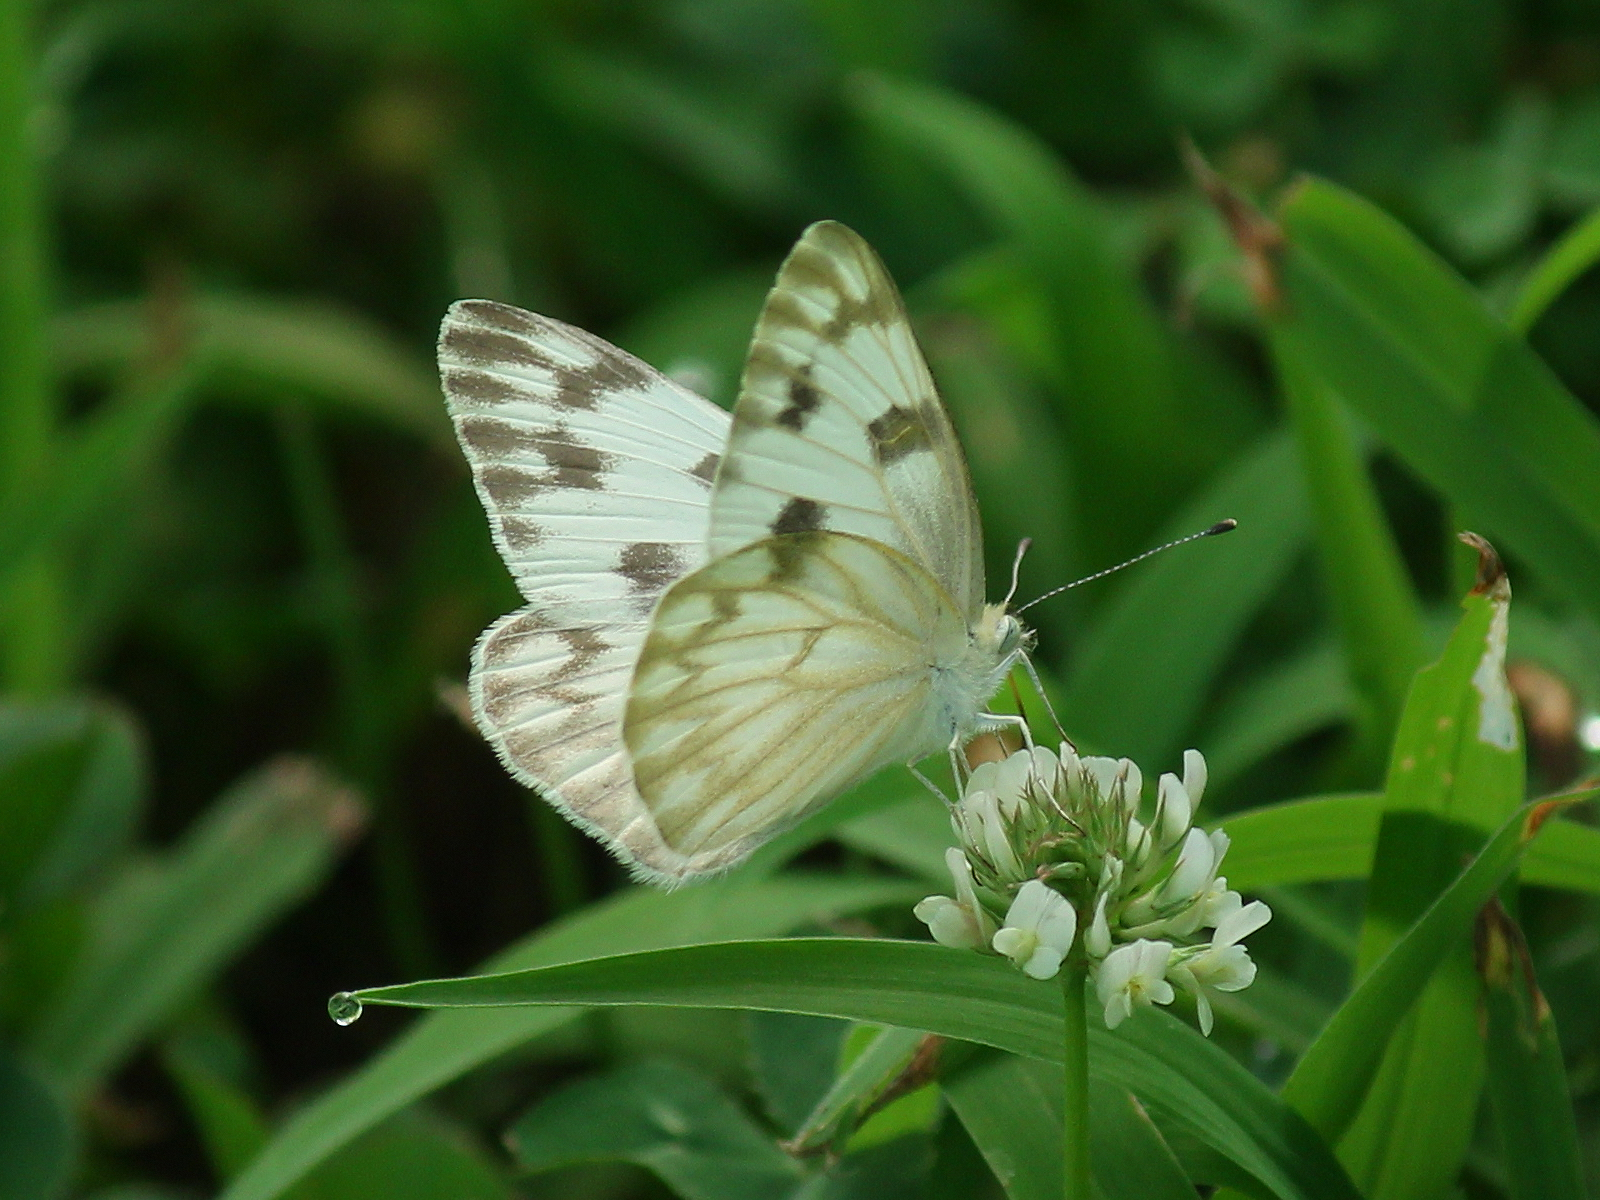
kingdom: Animalia
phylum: Arthropoda
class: Insecta
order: Lepidoptera
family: Pieridae
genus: Pontia
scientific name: Pontia protodice
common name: Checkered white
